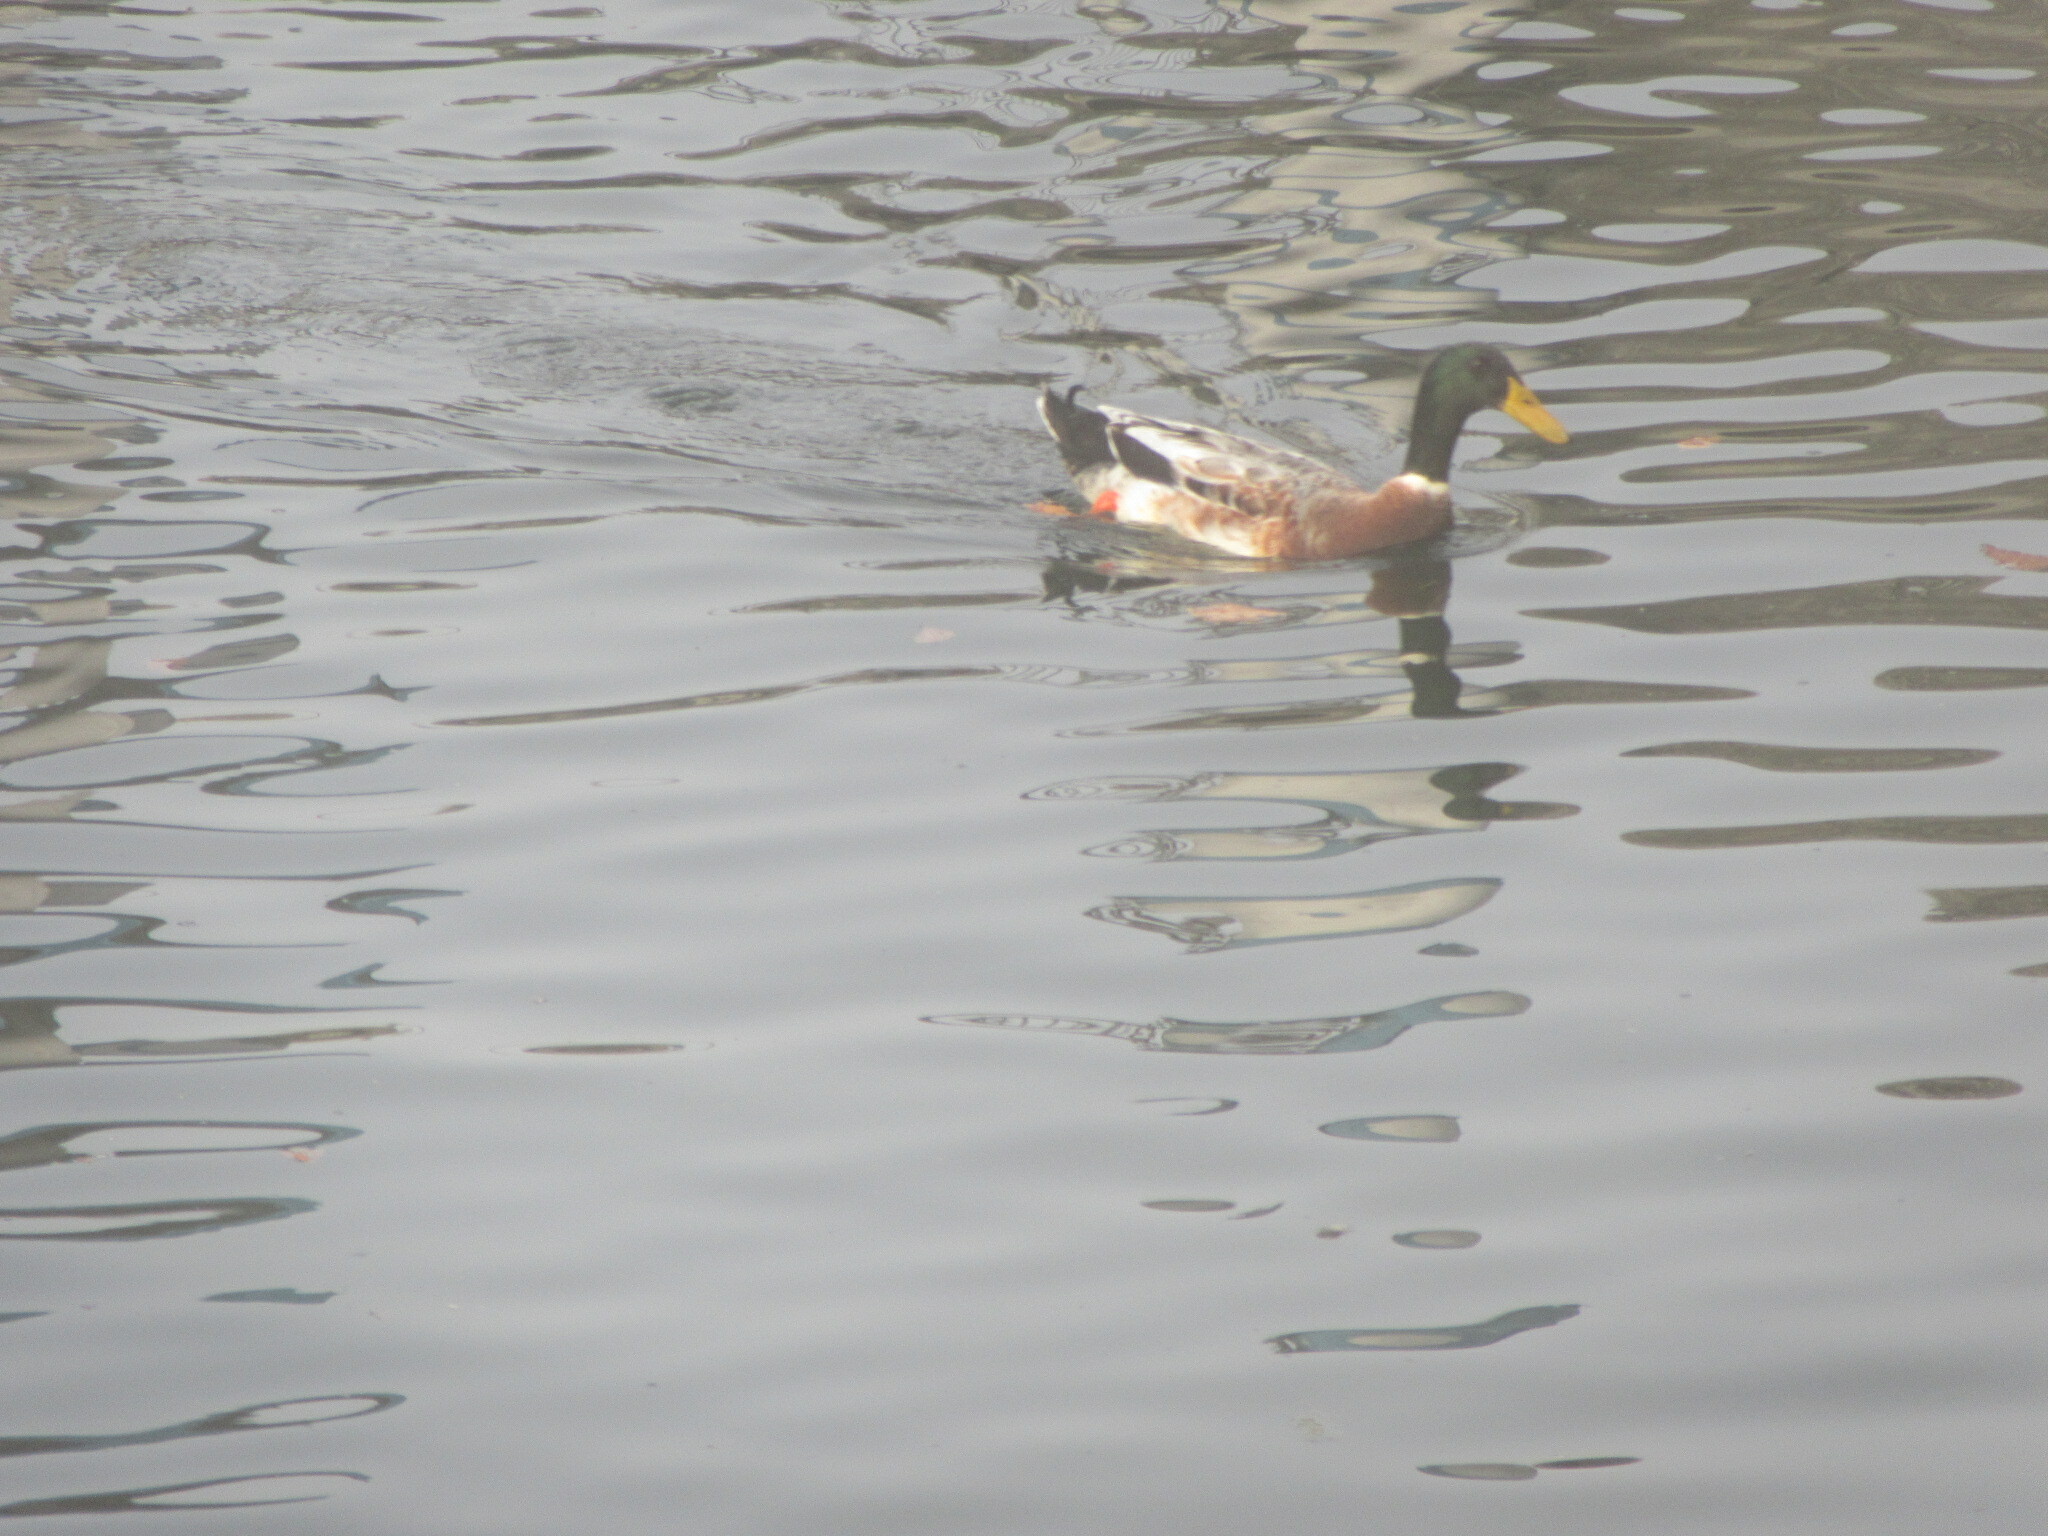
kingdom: Animalia
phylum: Chordata
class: Aves
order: Anseriformes
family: Anatidae
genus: Anas
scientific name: Anas platyrhynchos
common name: Mallard
